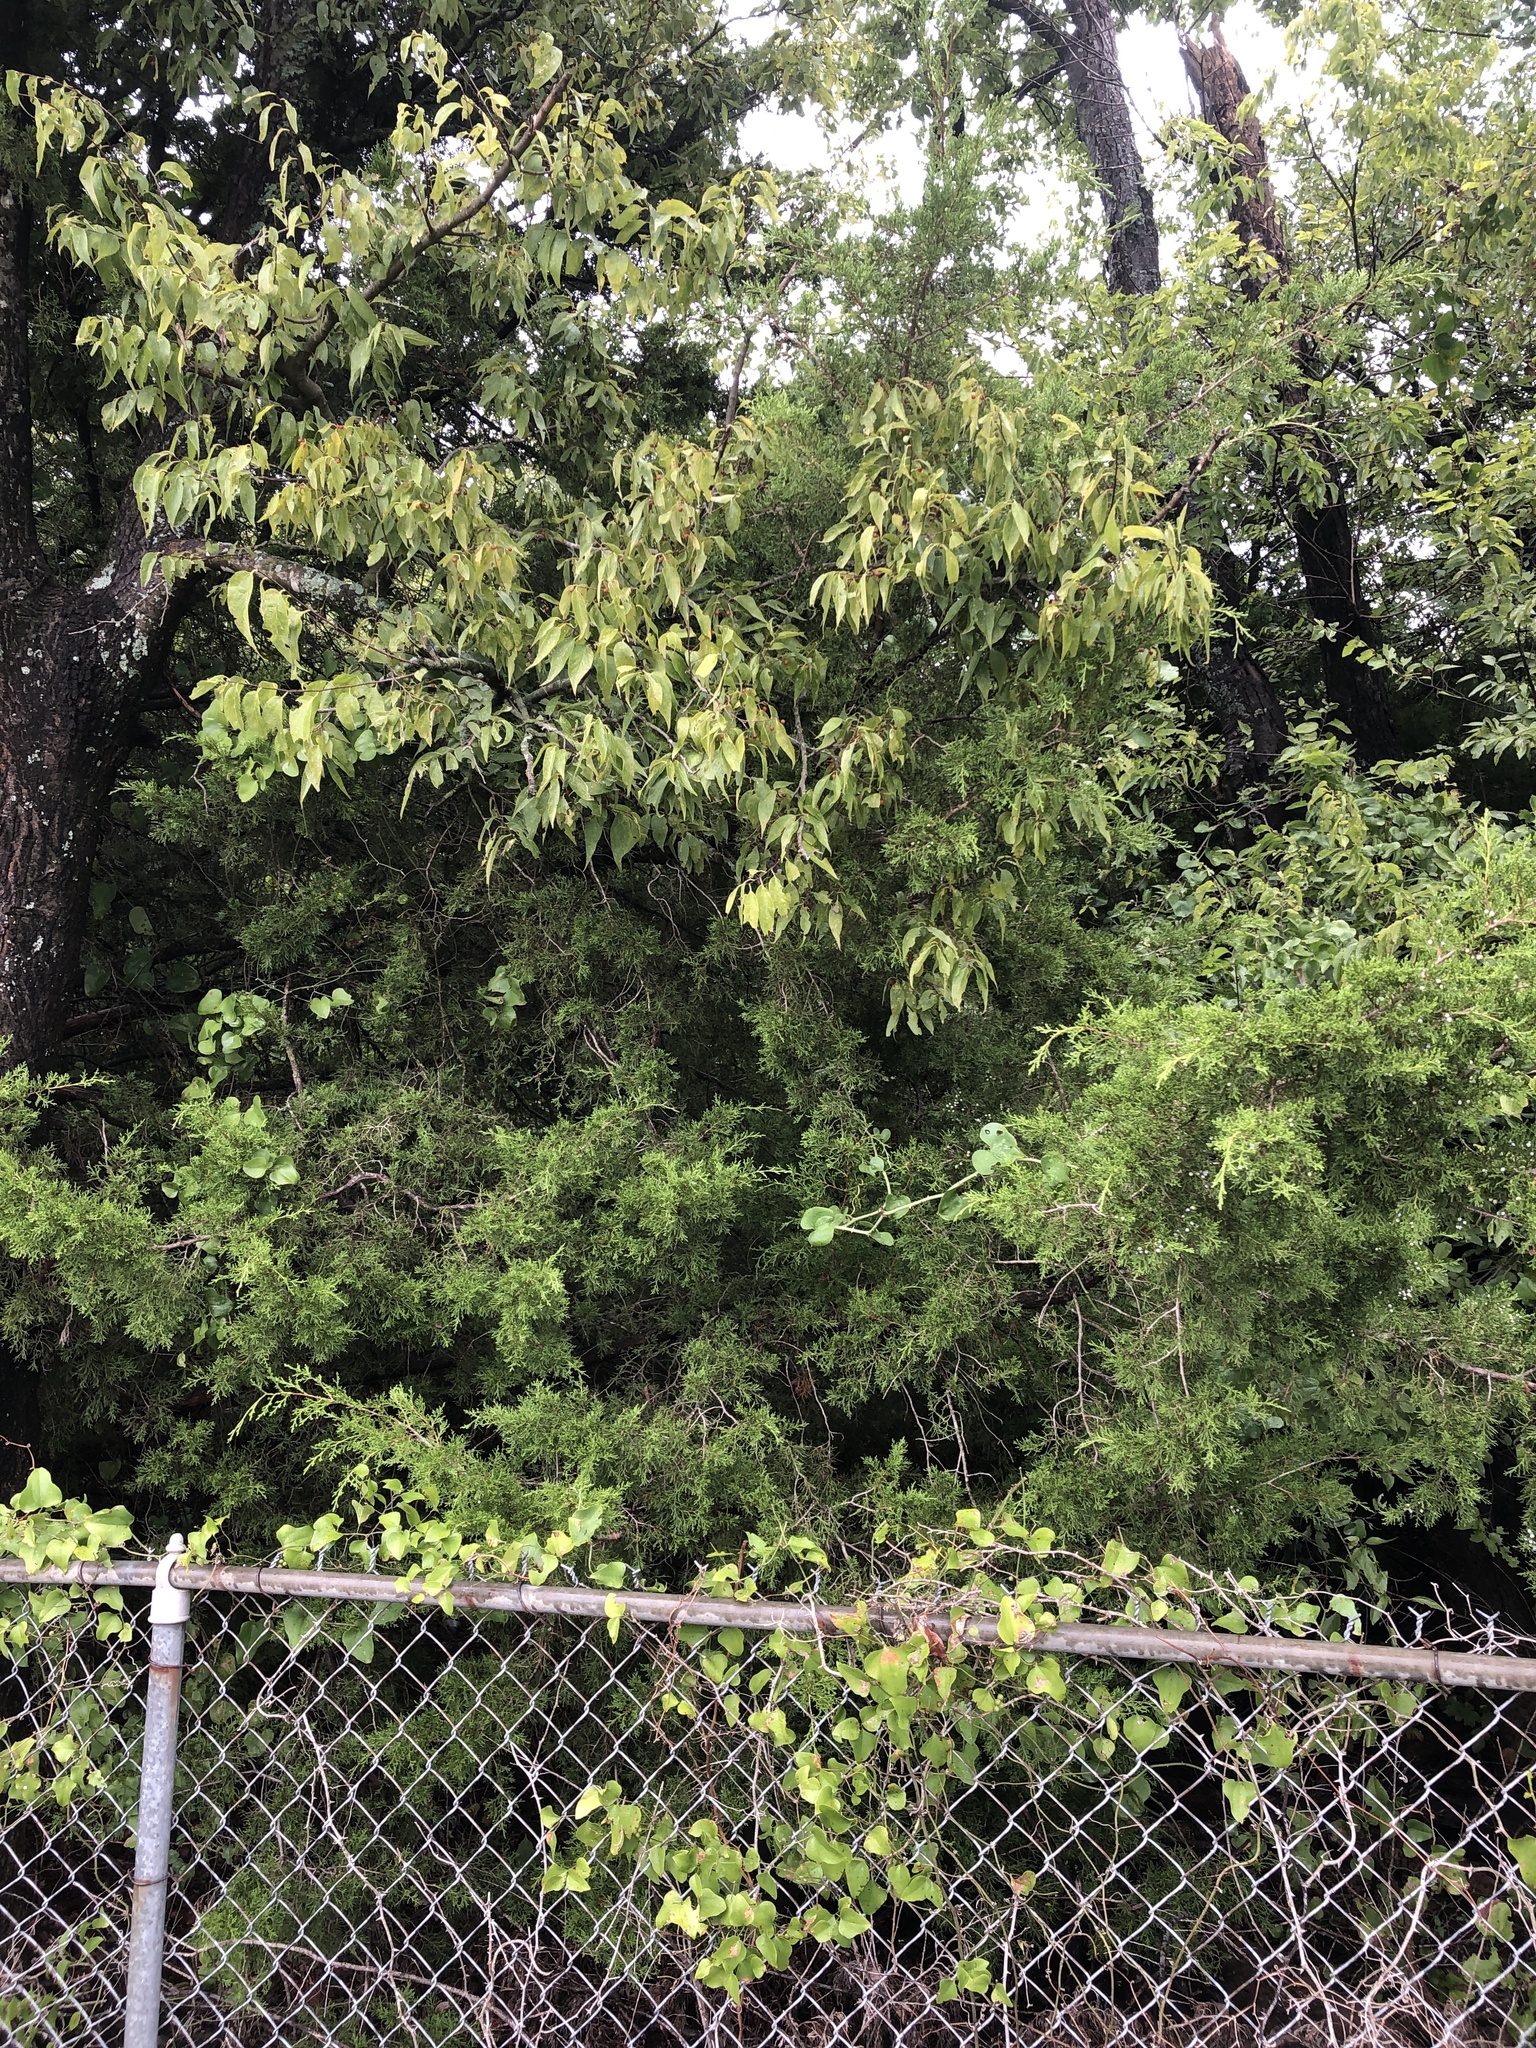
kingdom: Plantae
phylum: Tracheophyta
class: Pinopsida
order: Pinales
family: Cupressaceae
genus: Juniperus
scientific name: Juniperus virginiana
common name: Red juniper
